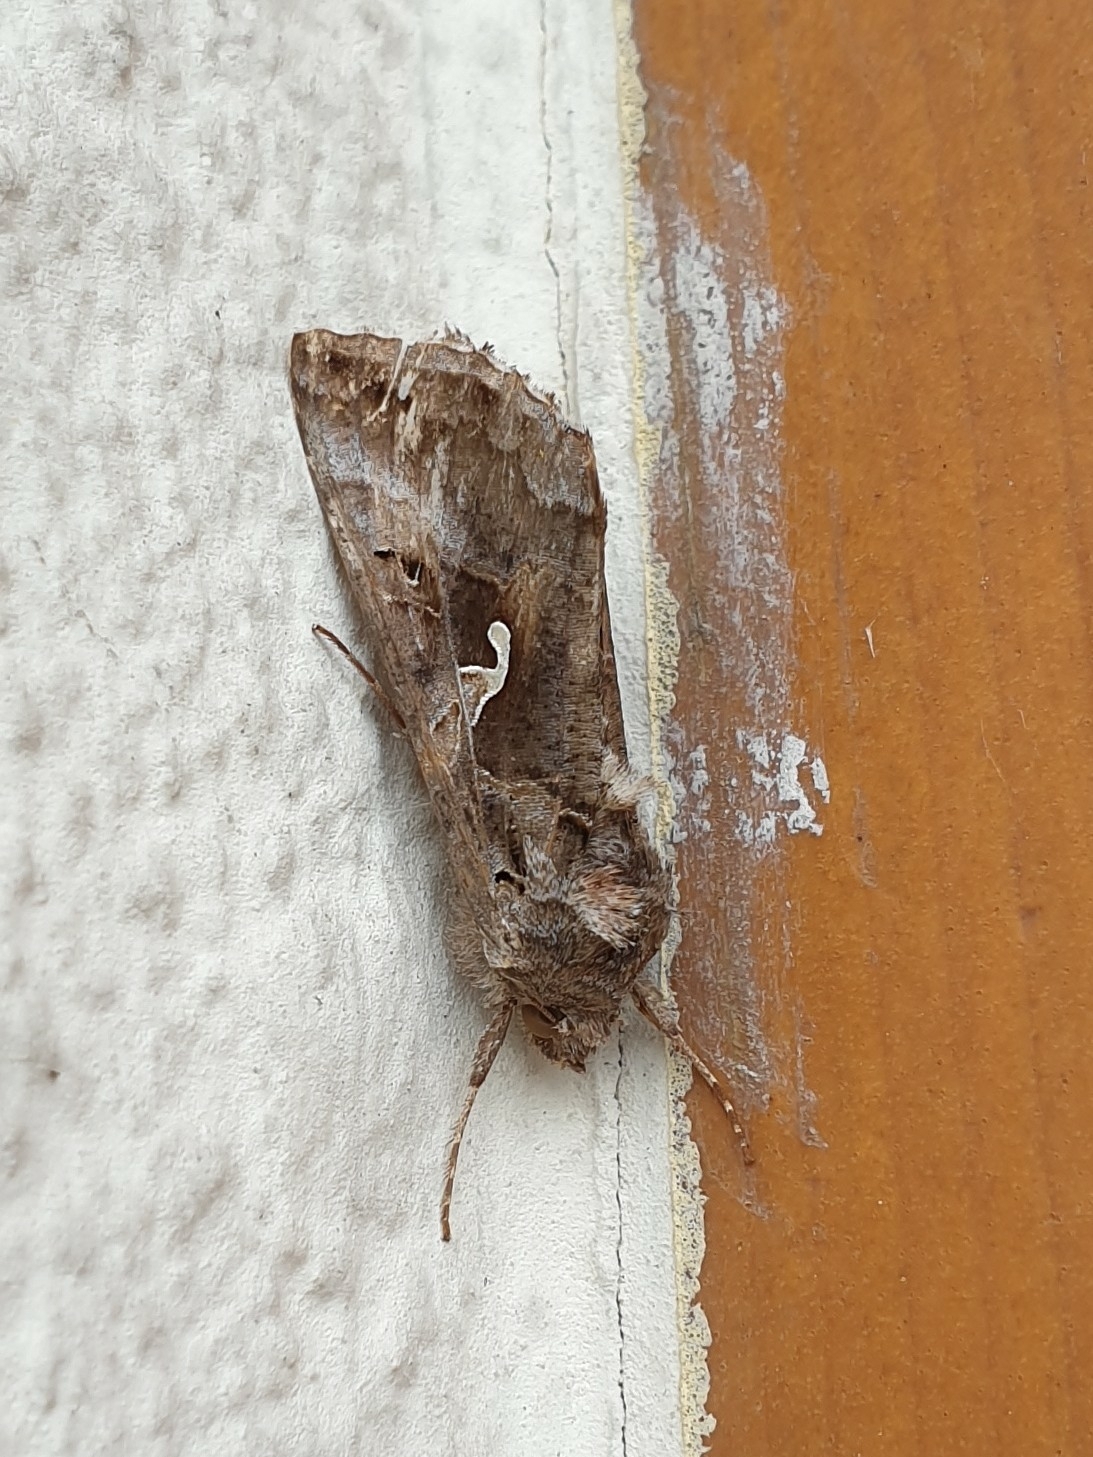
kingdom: Animalia
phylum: Arthropoda
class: Insecta
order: Lepidoptera
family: Noctuidae
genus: Autographa
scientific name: Autographa gamma
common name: Silver y
